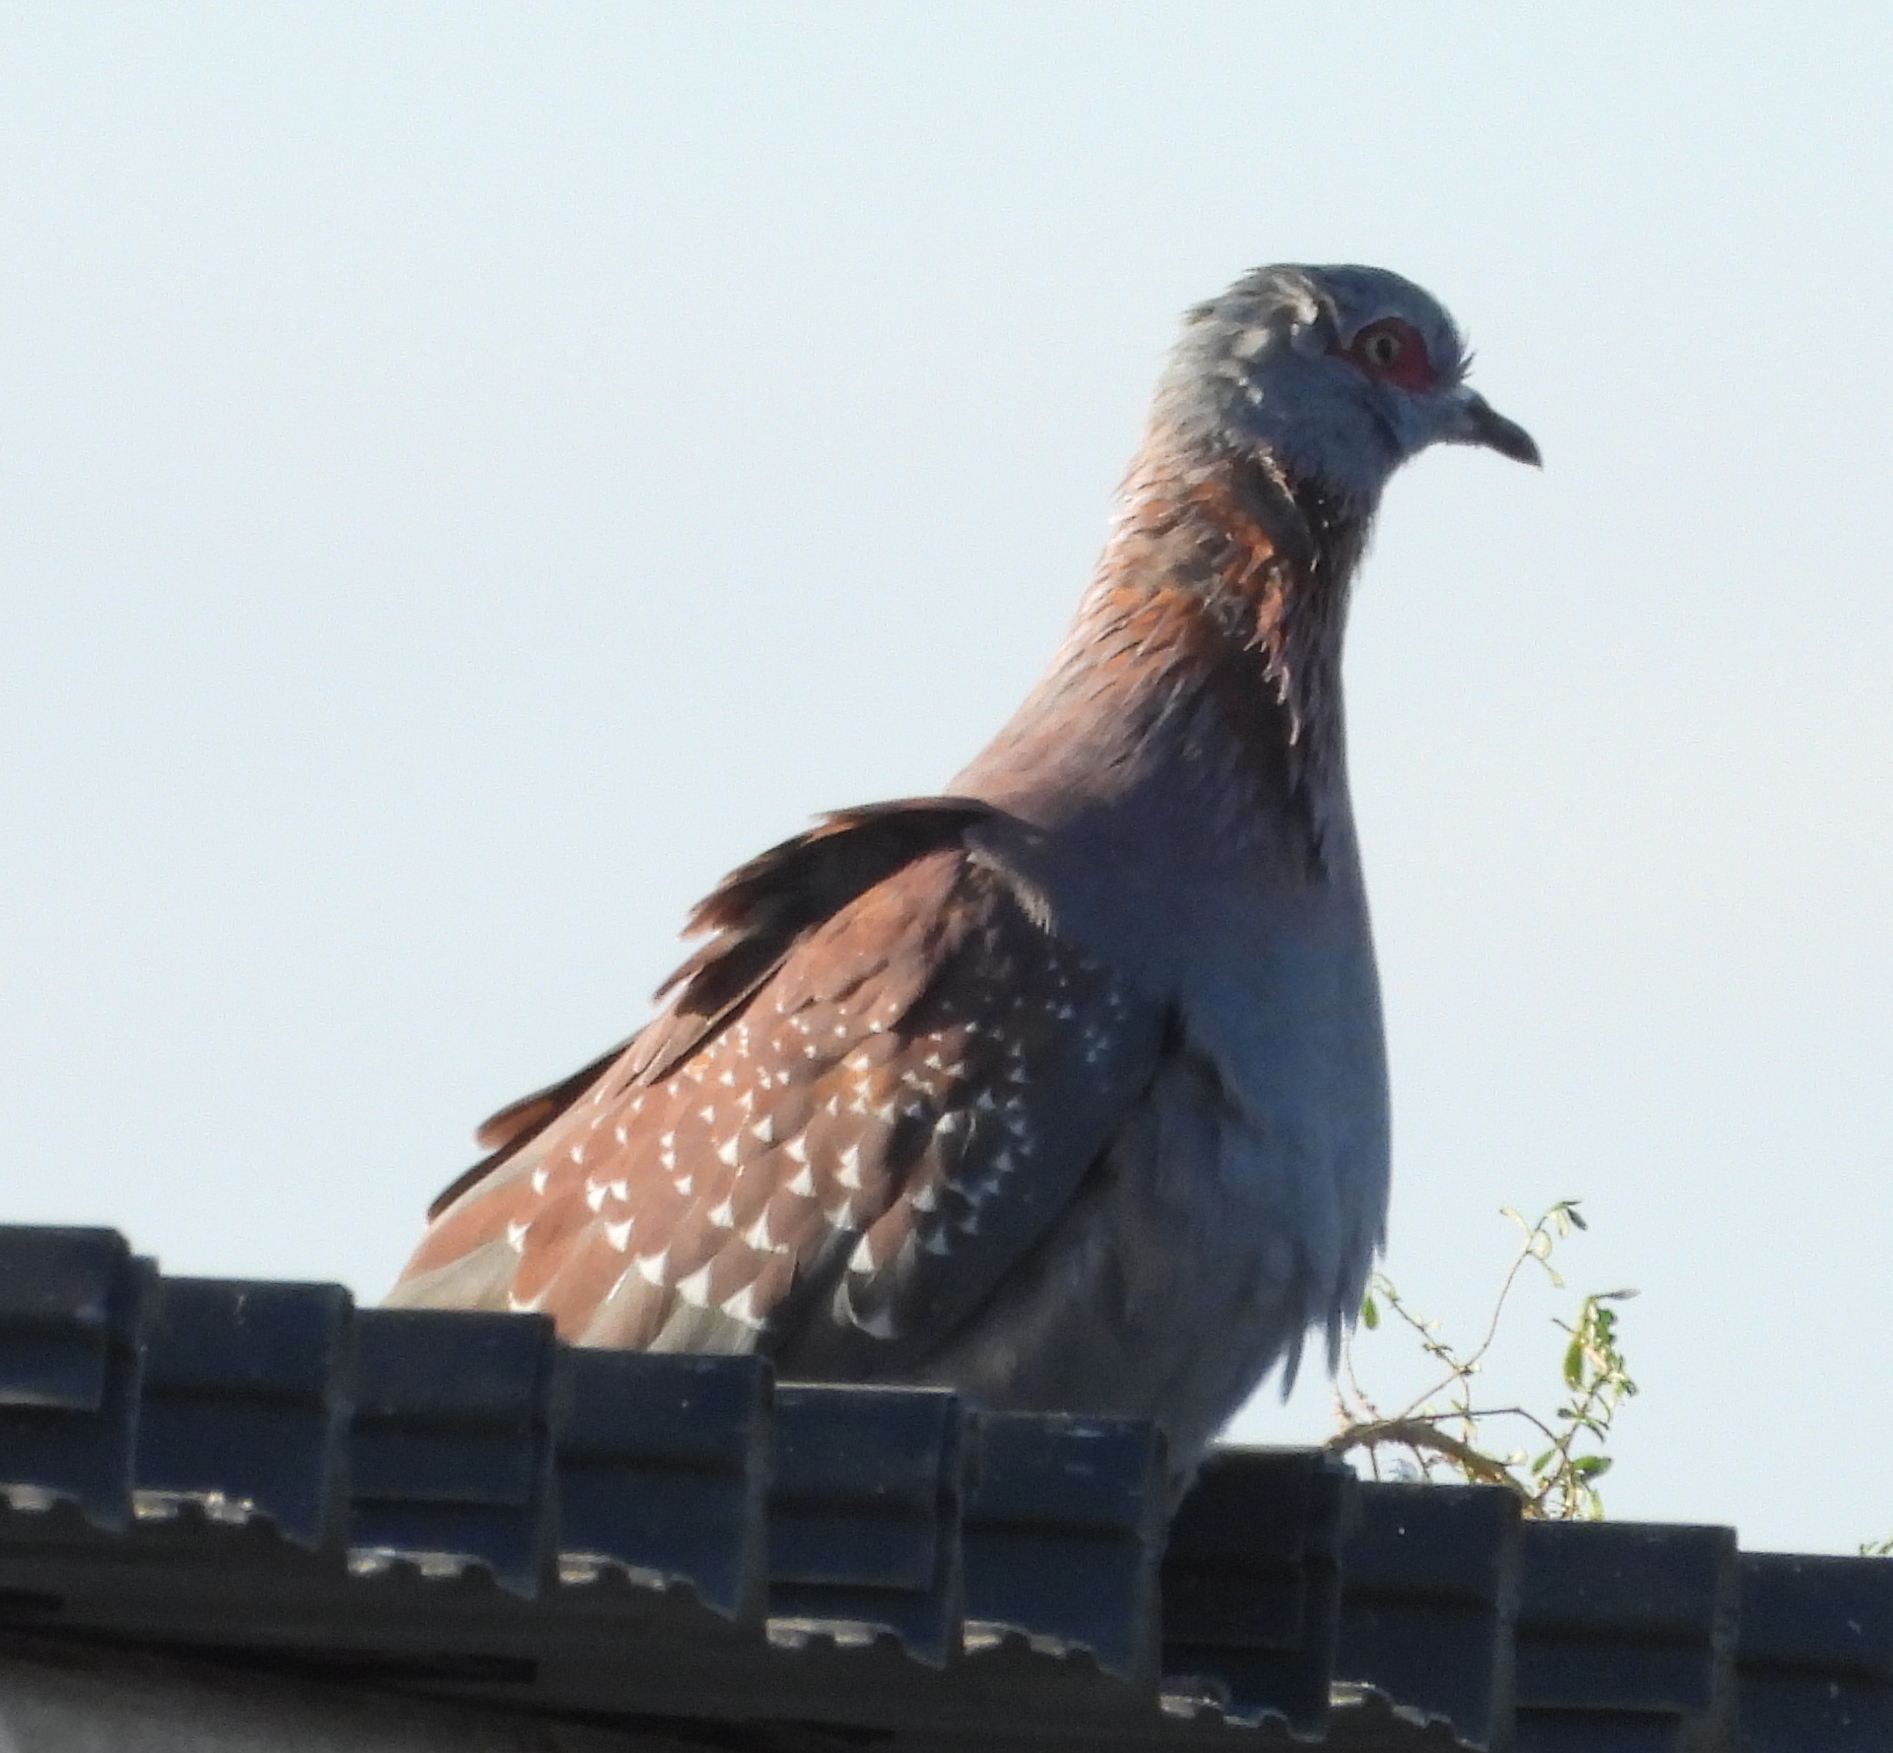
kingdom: Animalia
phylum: Chordata
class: Aves
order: Columbiformes
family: Columbidae
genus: Columba
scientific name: Columba guinea
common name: Speckled pigeon
